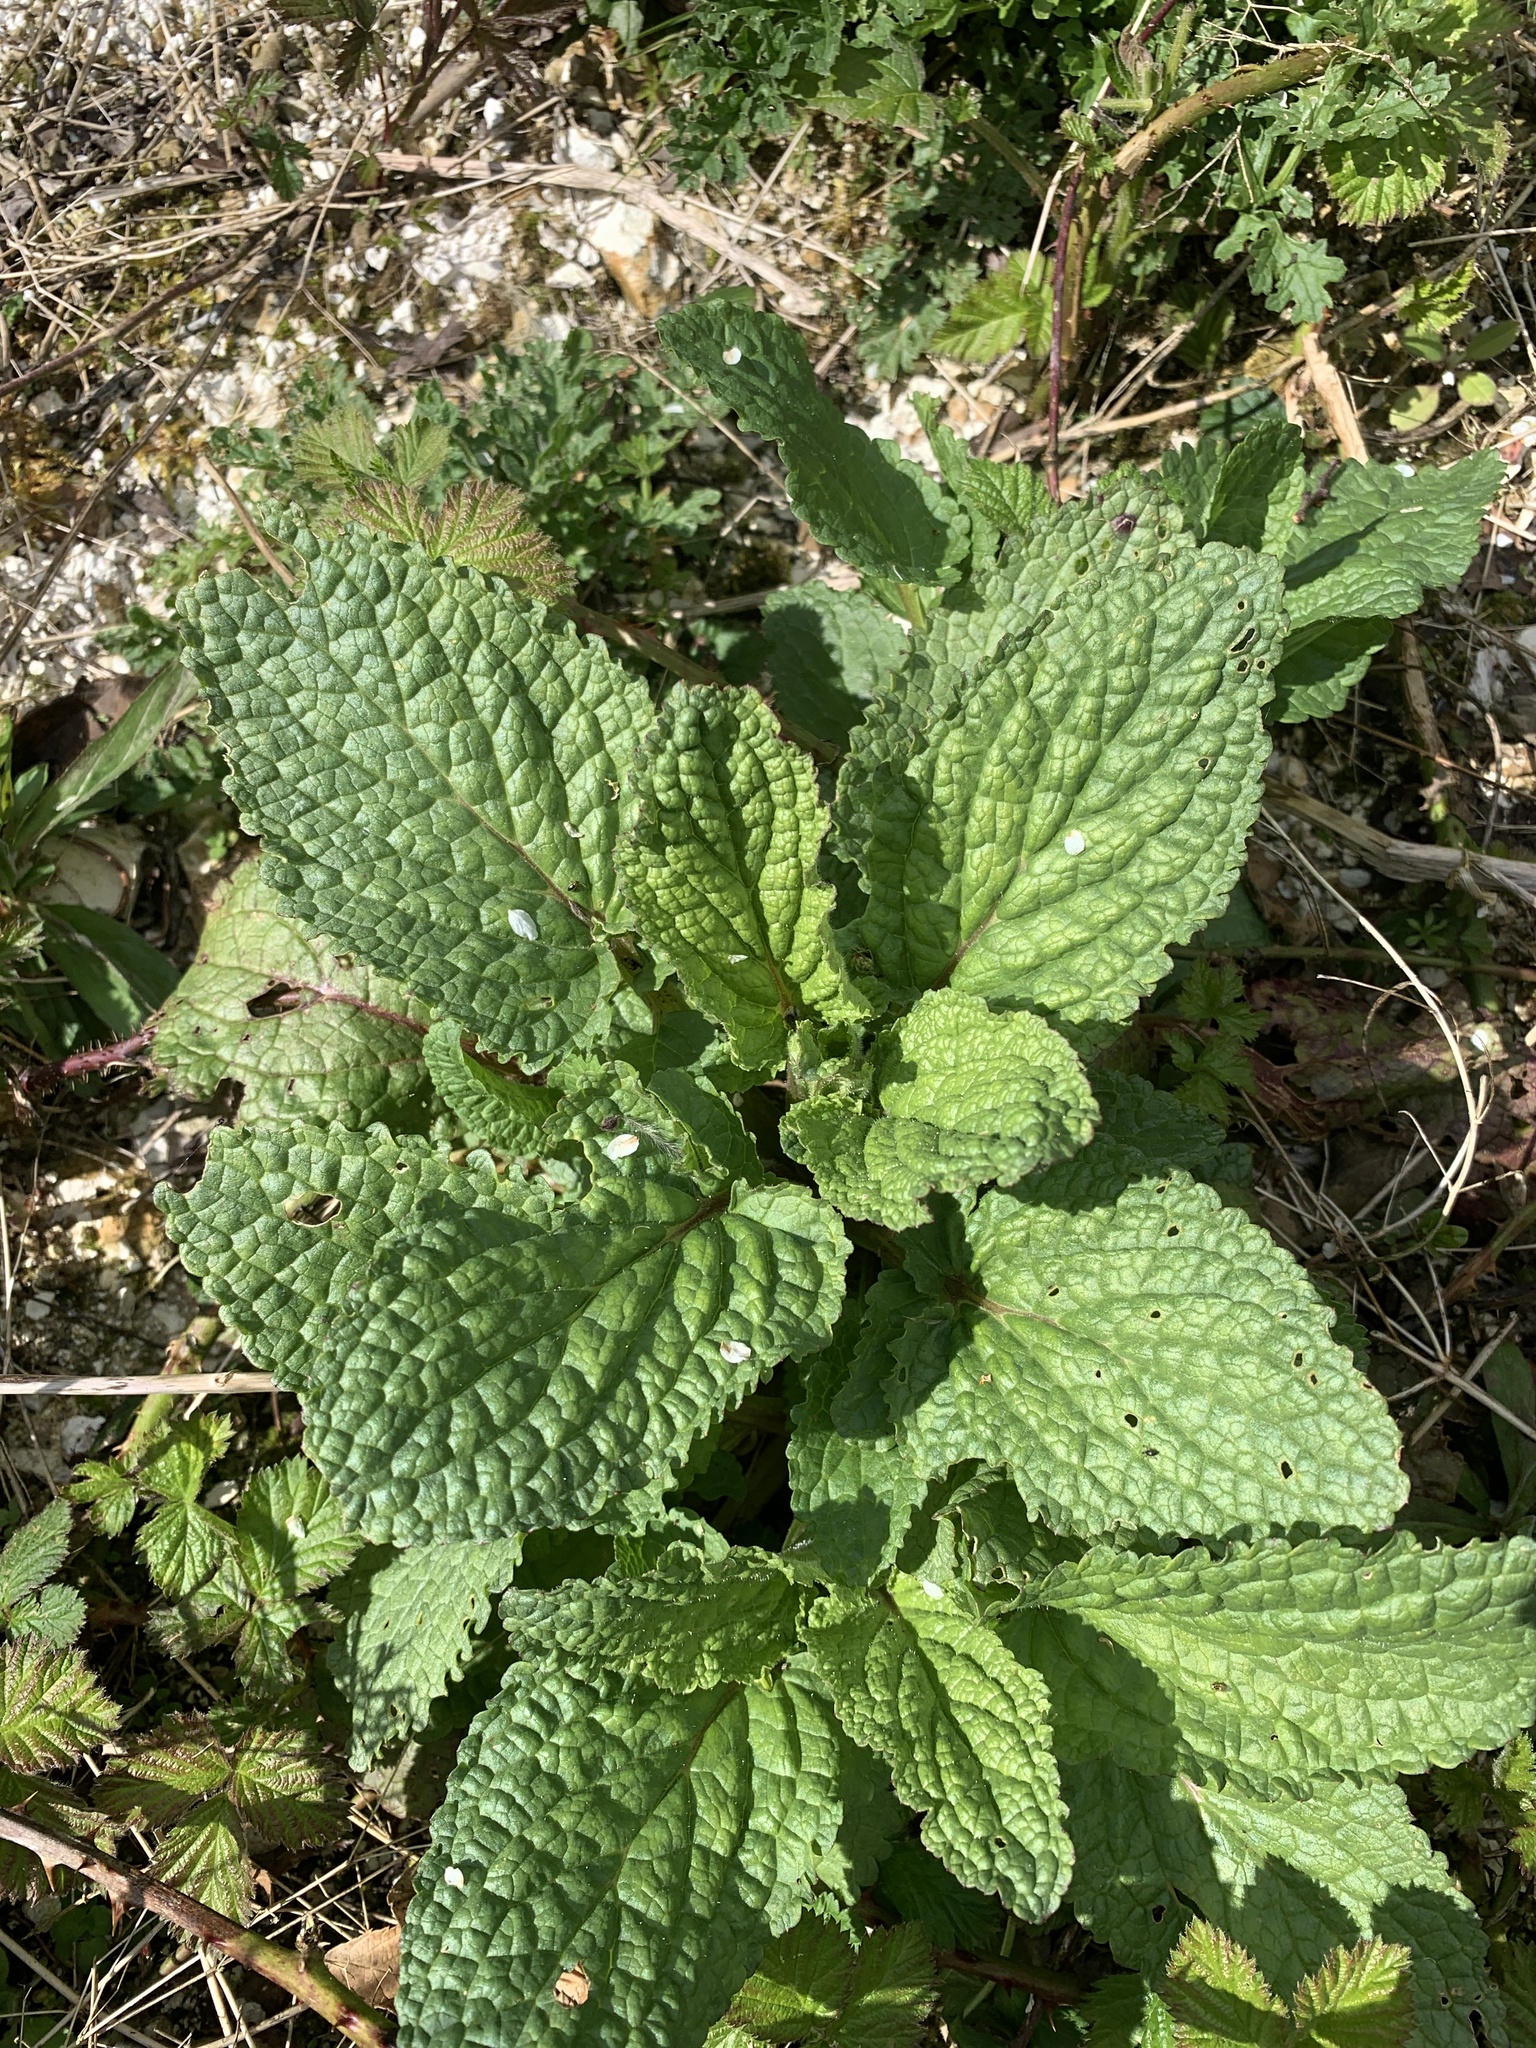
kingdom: Plantae
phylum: Tracheophyta
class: Magnoliopsida
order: Boraginales
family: Boraginaceae
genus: Borago
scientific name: Borago officinalis
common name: Borage
